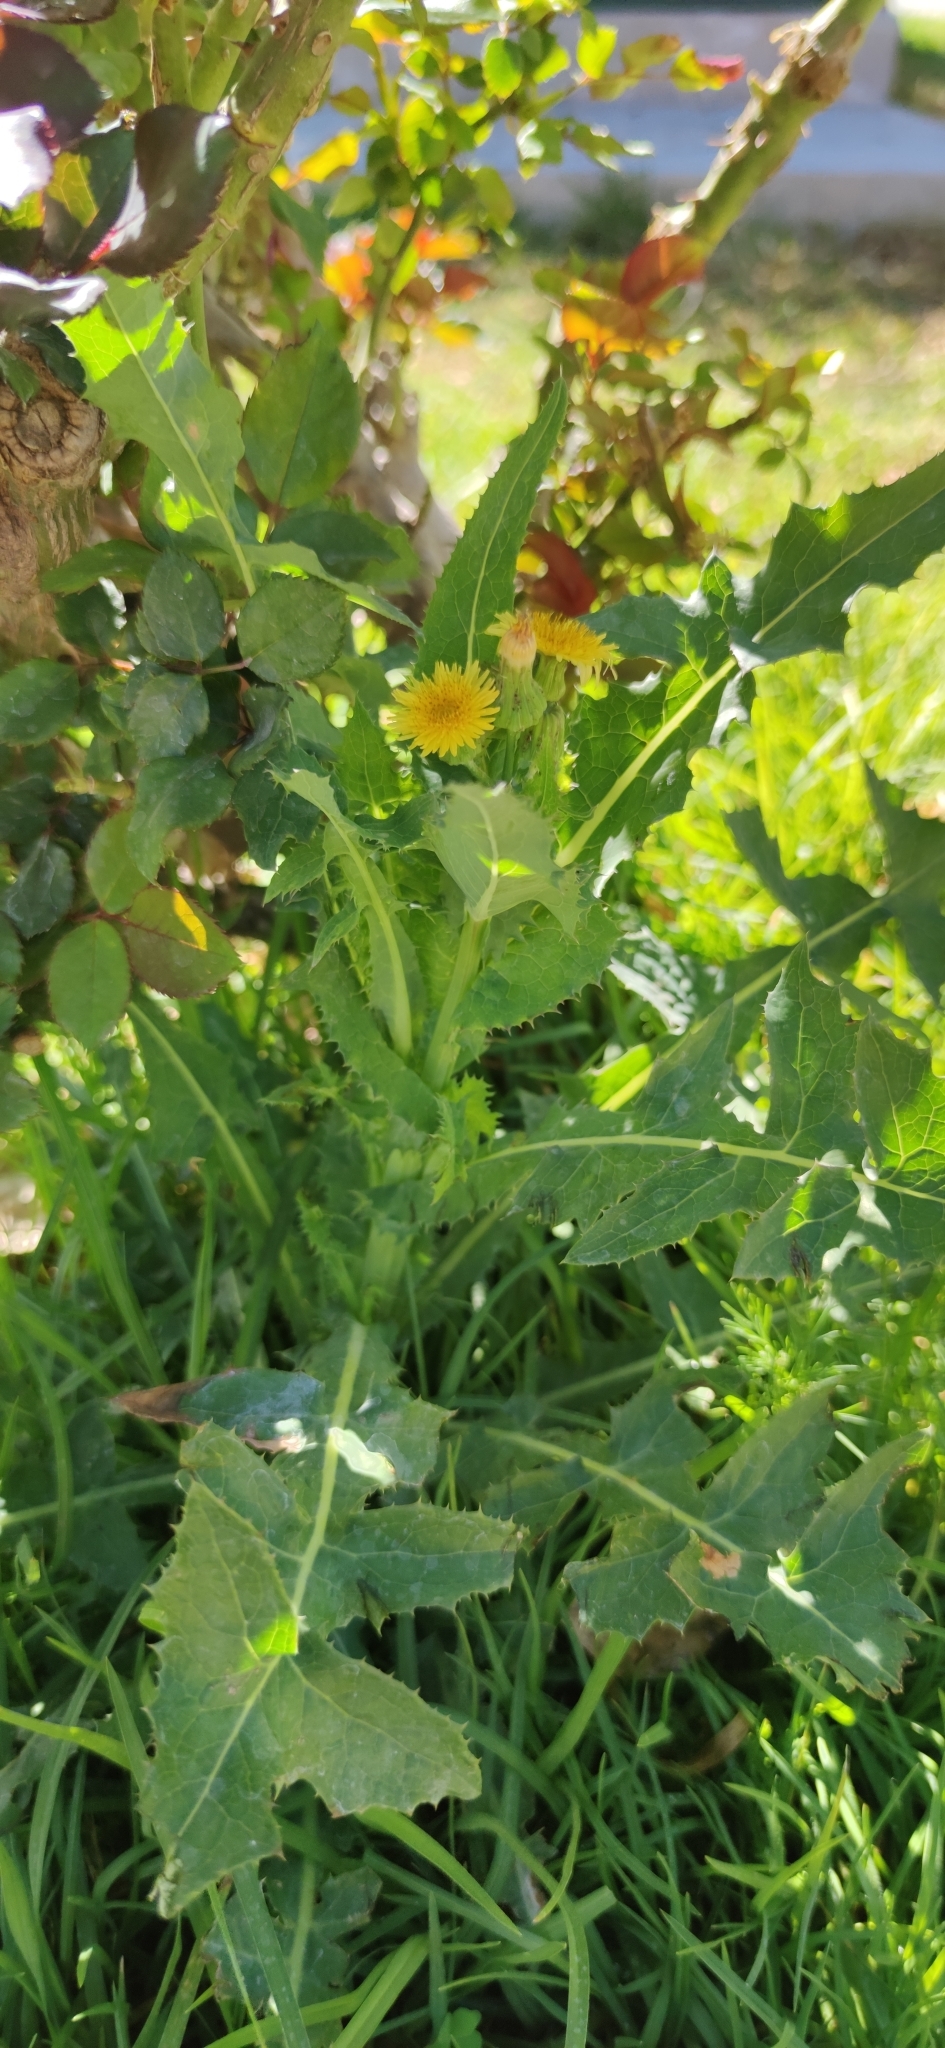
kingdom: Plantae
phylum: Tracheophyta
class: Magnoliopsida
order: Asterales
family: Asteraceae
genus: Sonchus
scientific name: Sonchus oleraceus
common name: Common sowthistle
